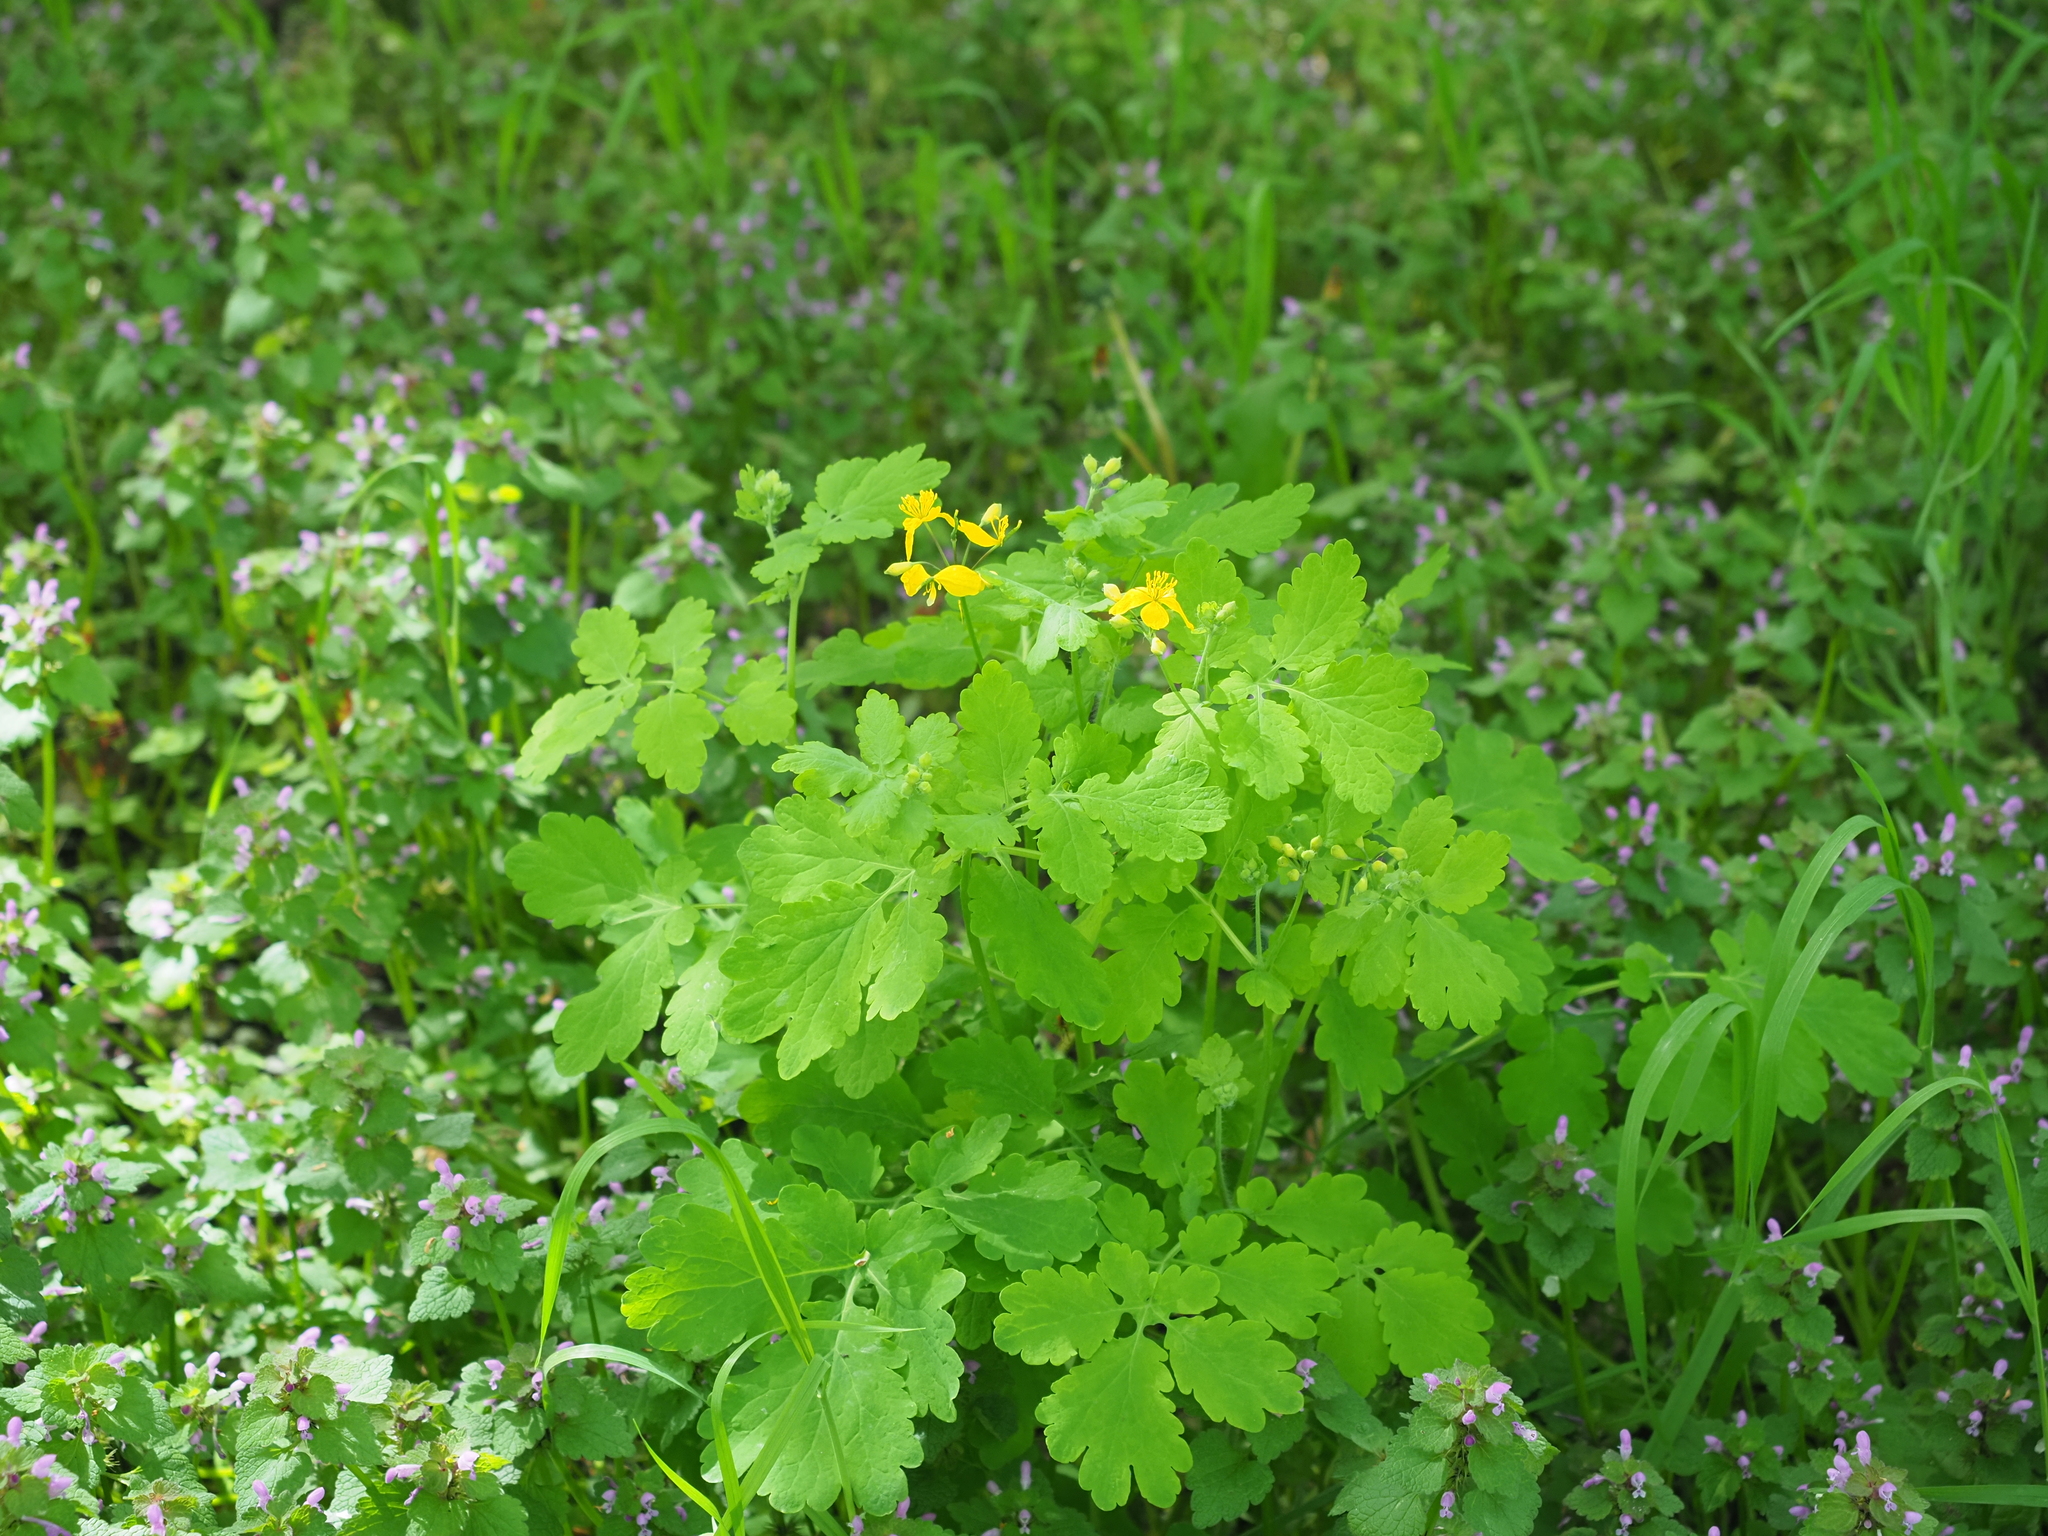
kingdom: Plantae
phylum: Tracheophyta
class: Magnoliopsida
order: Ranunculales
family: Papaveraceae
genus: Chelidonium
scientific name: Chelidonium majus
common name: Greater celandine
